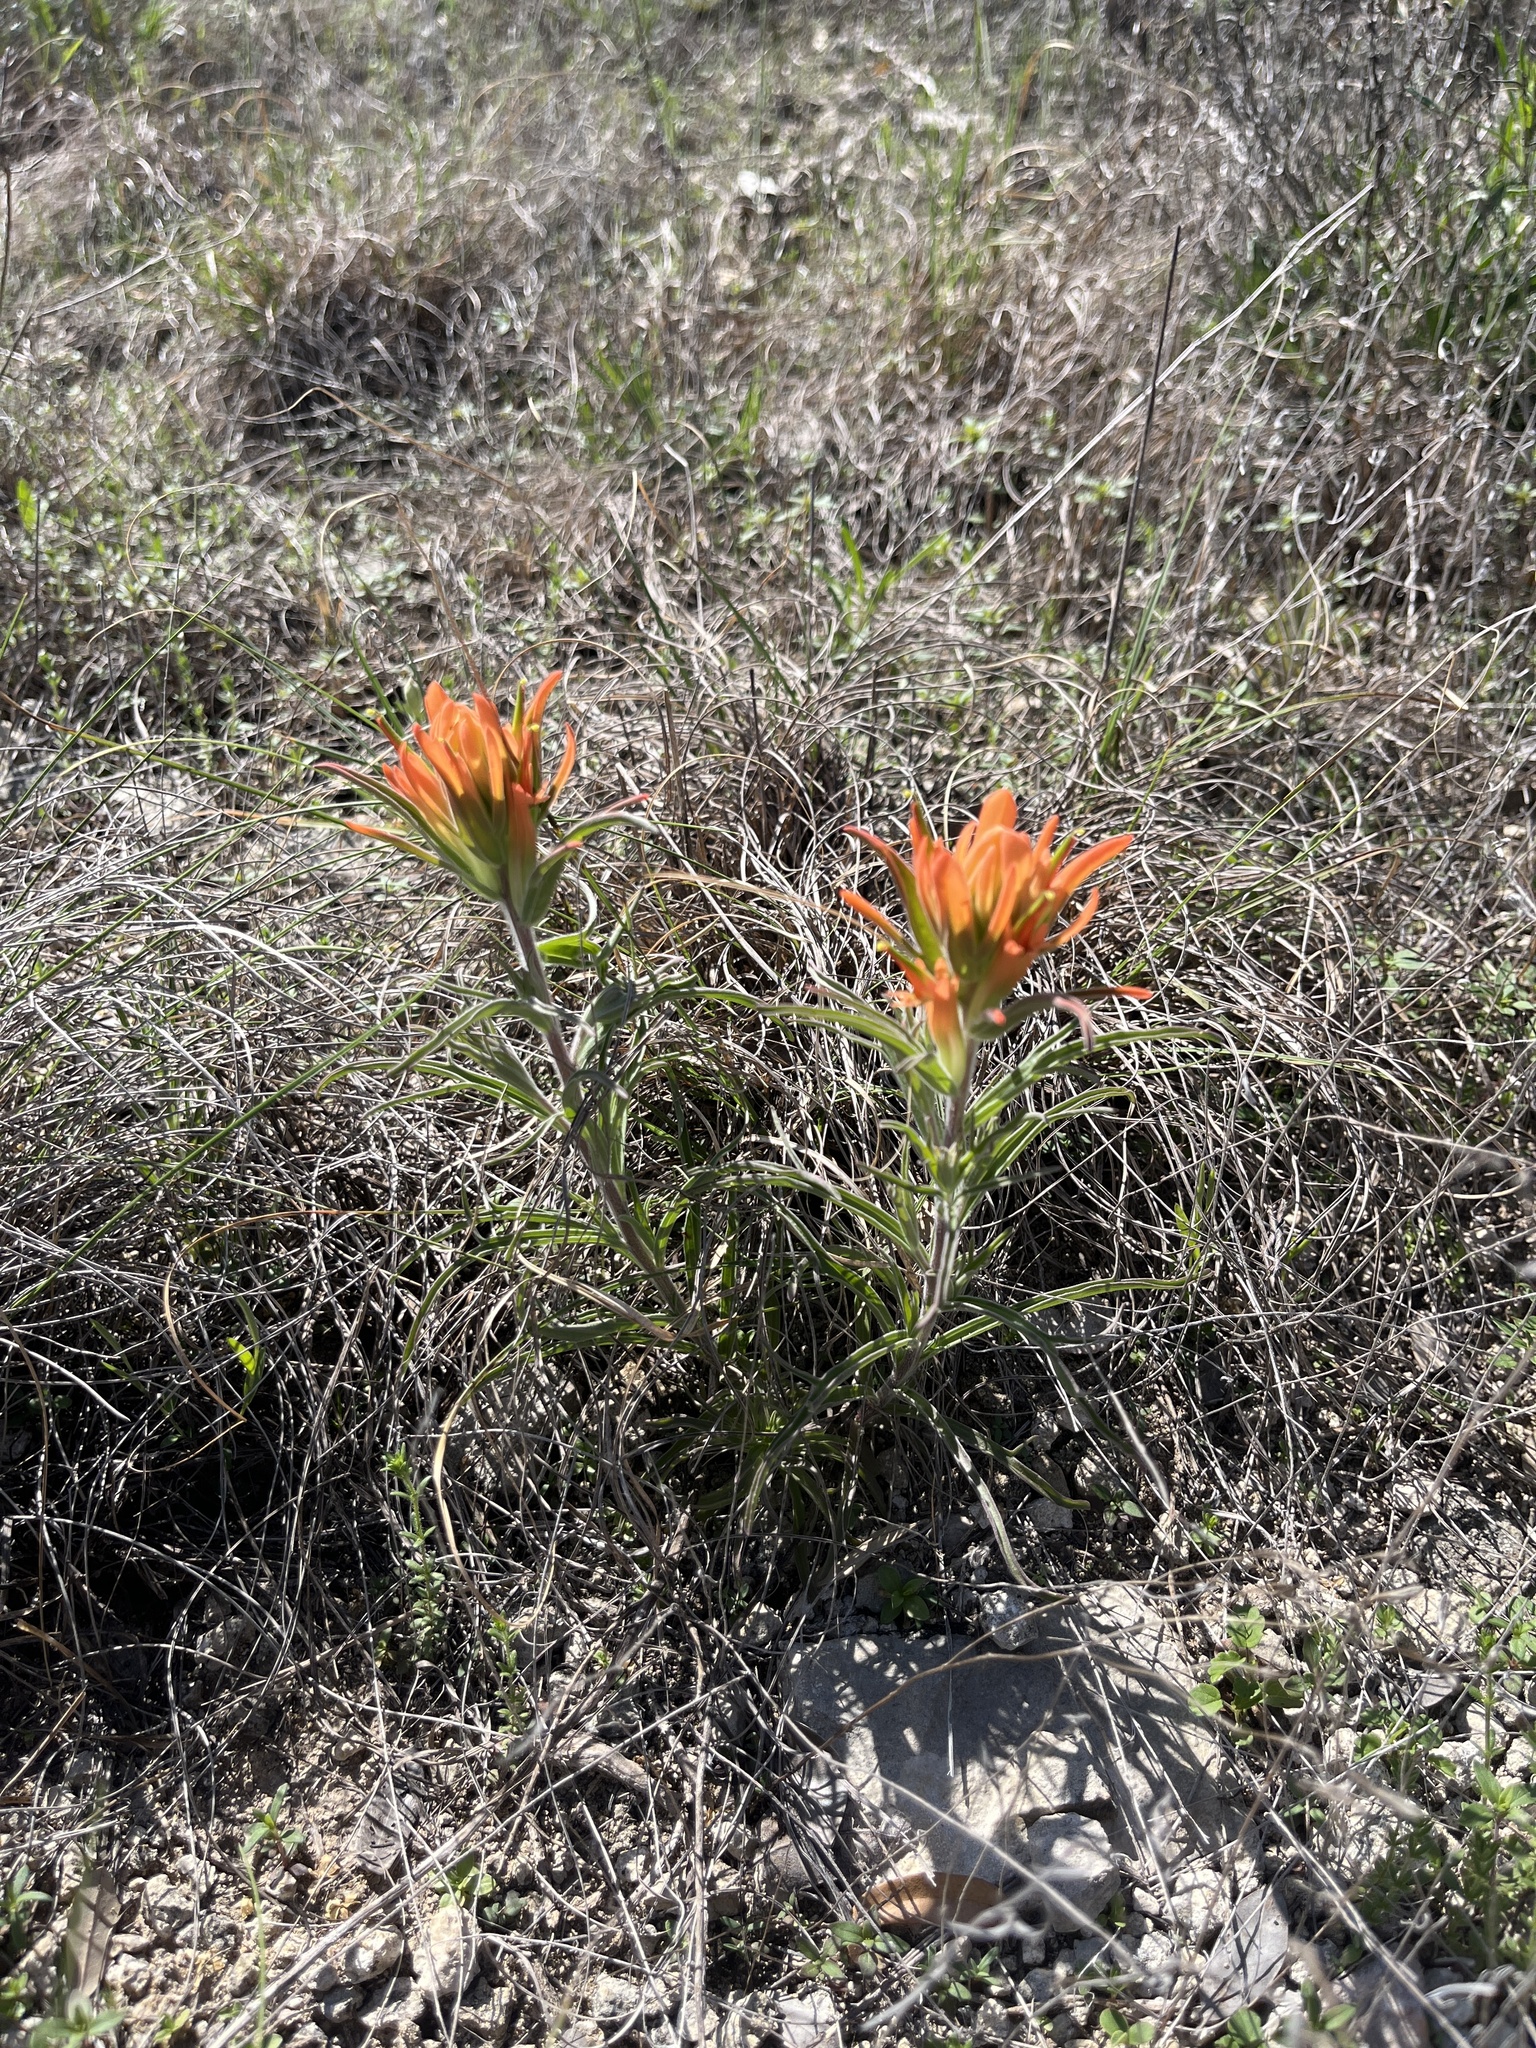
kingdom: Plantae
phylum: Tracheophyta
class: Magnoliopsida
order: Lamiales
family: Orobanchaceae
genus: Castilleja
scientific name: Castilleja lindheimeri
